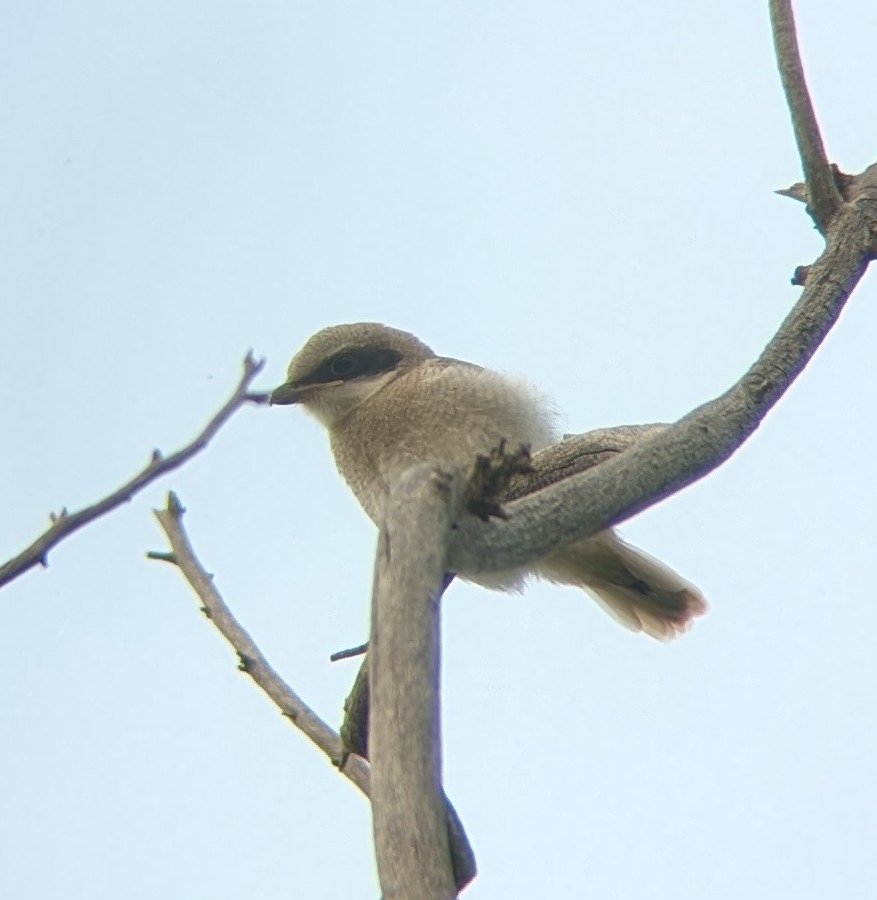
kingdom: Animalia
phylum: Chordata
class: Aves
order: Passeriformes
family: Laniidae
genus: Lanius
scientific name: Lanius ludovicianus
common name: Loggerhead shrike
